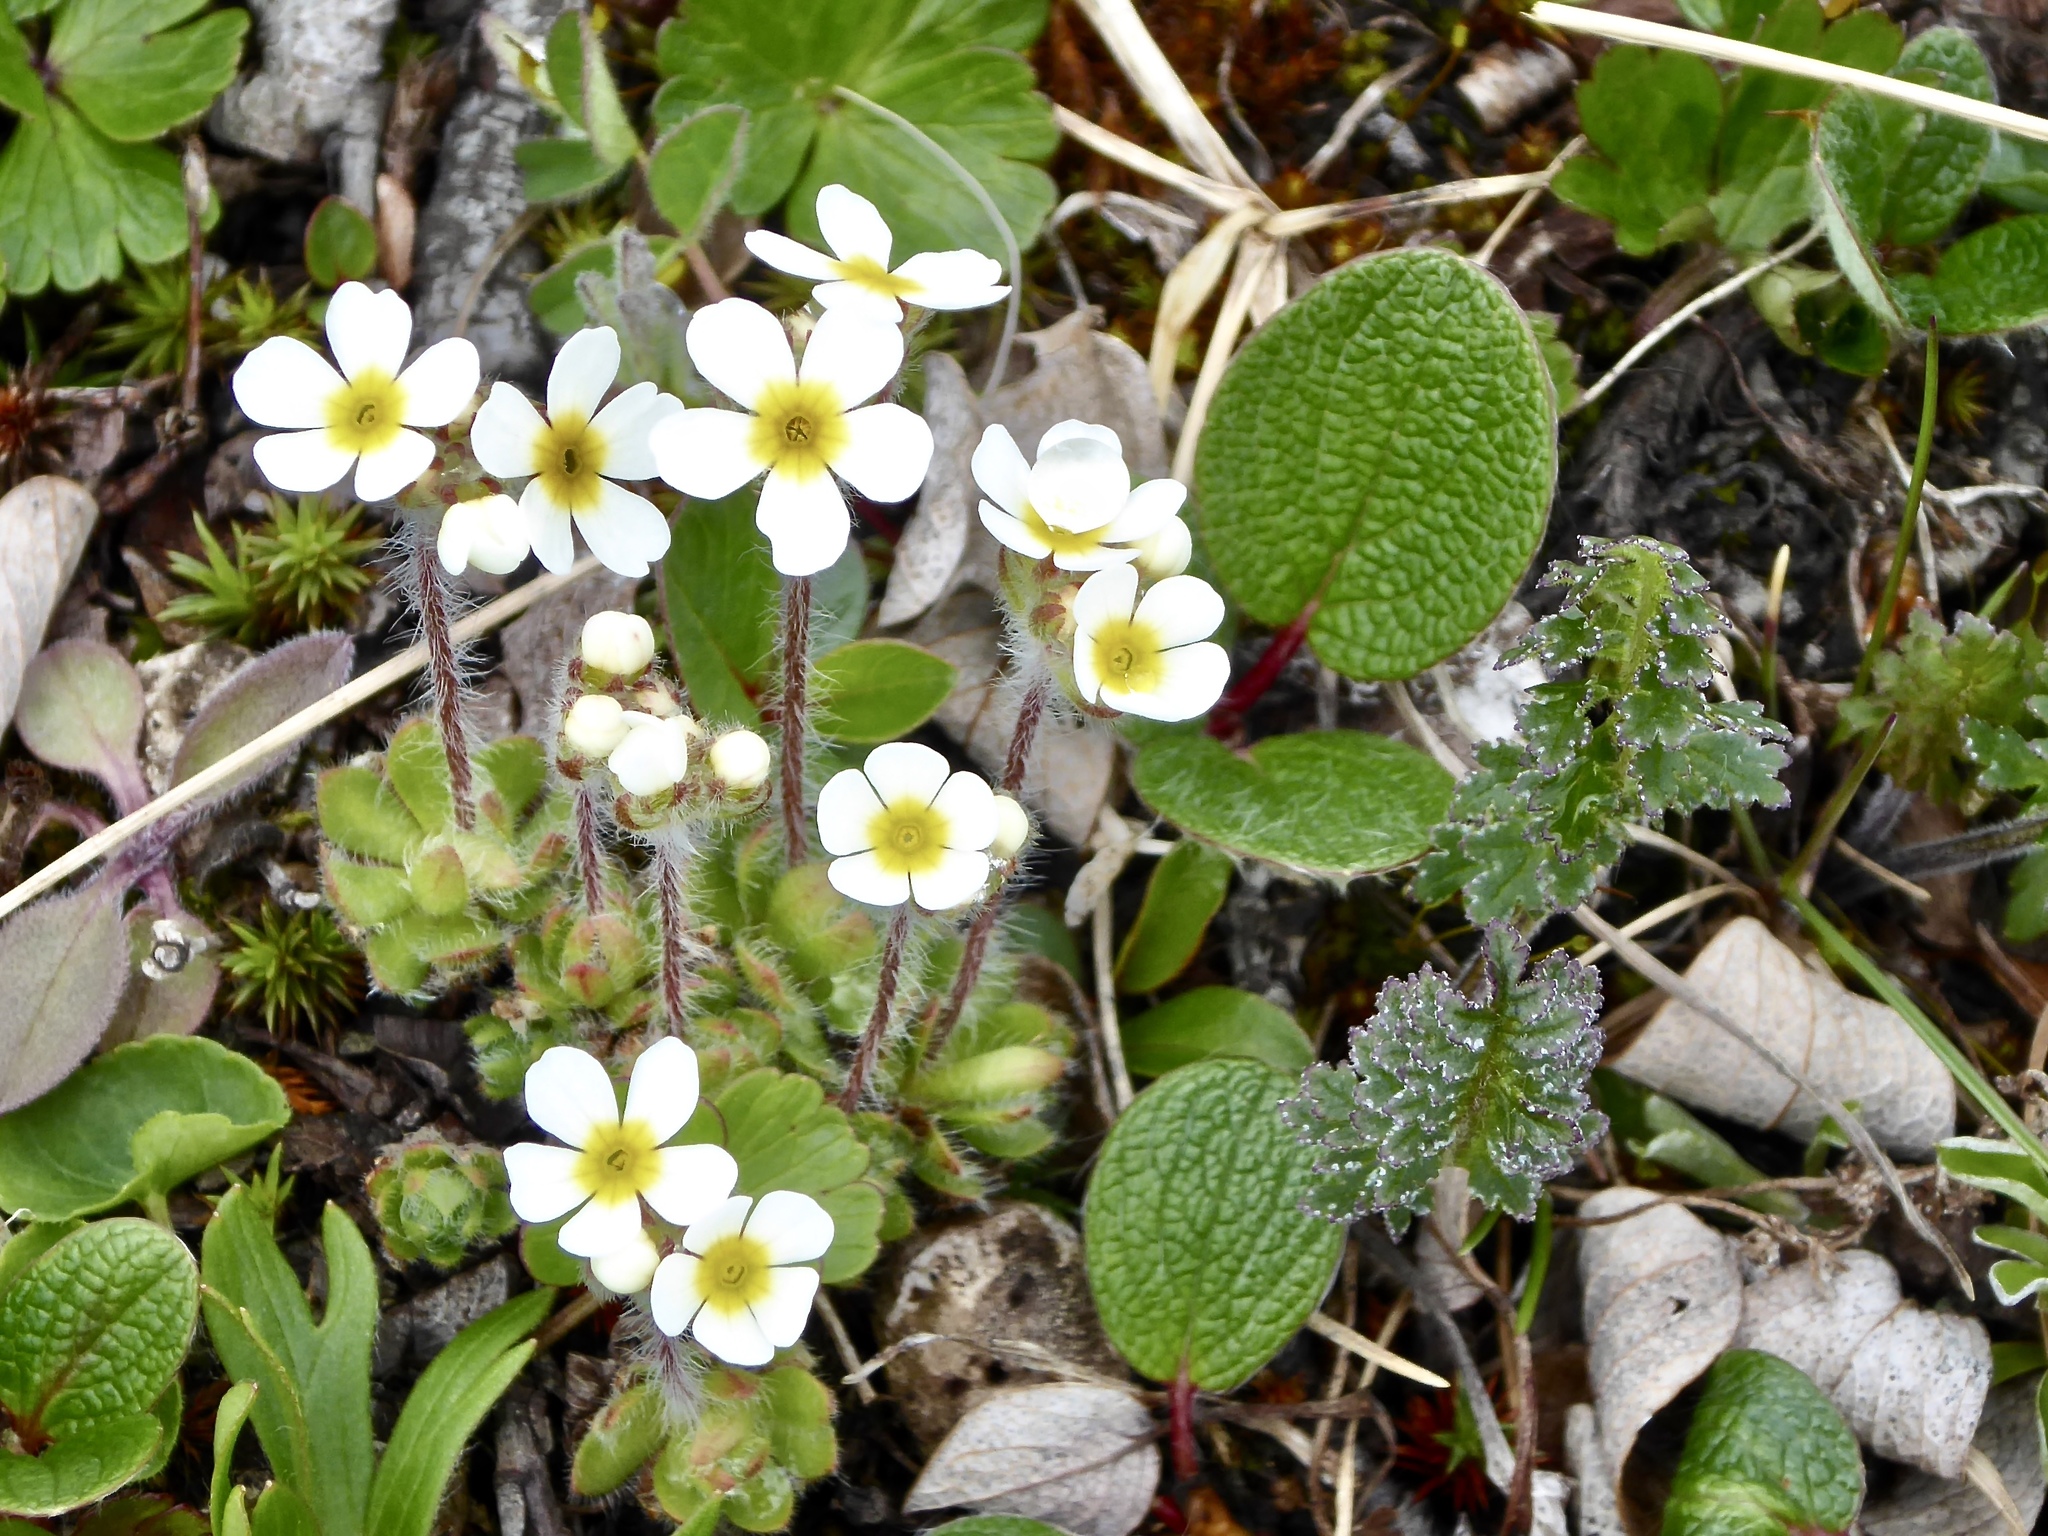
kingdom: Plantae
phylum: Tracheophyta
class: Magnoliopsida
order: Ericales
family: Primulaceae
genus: Androsace
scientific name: Androsace chamaejasme
